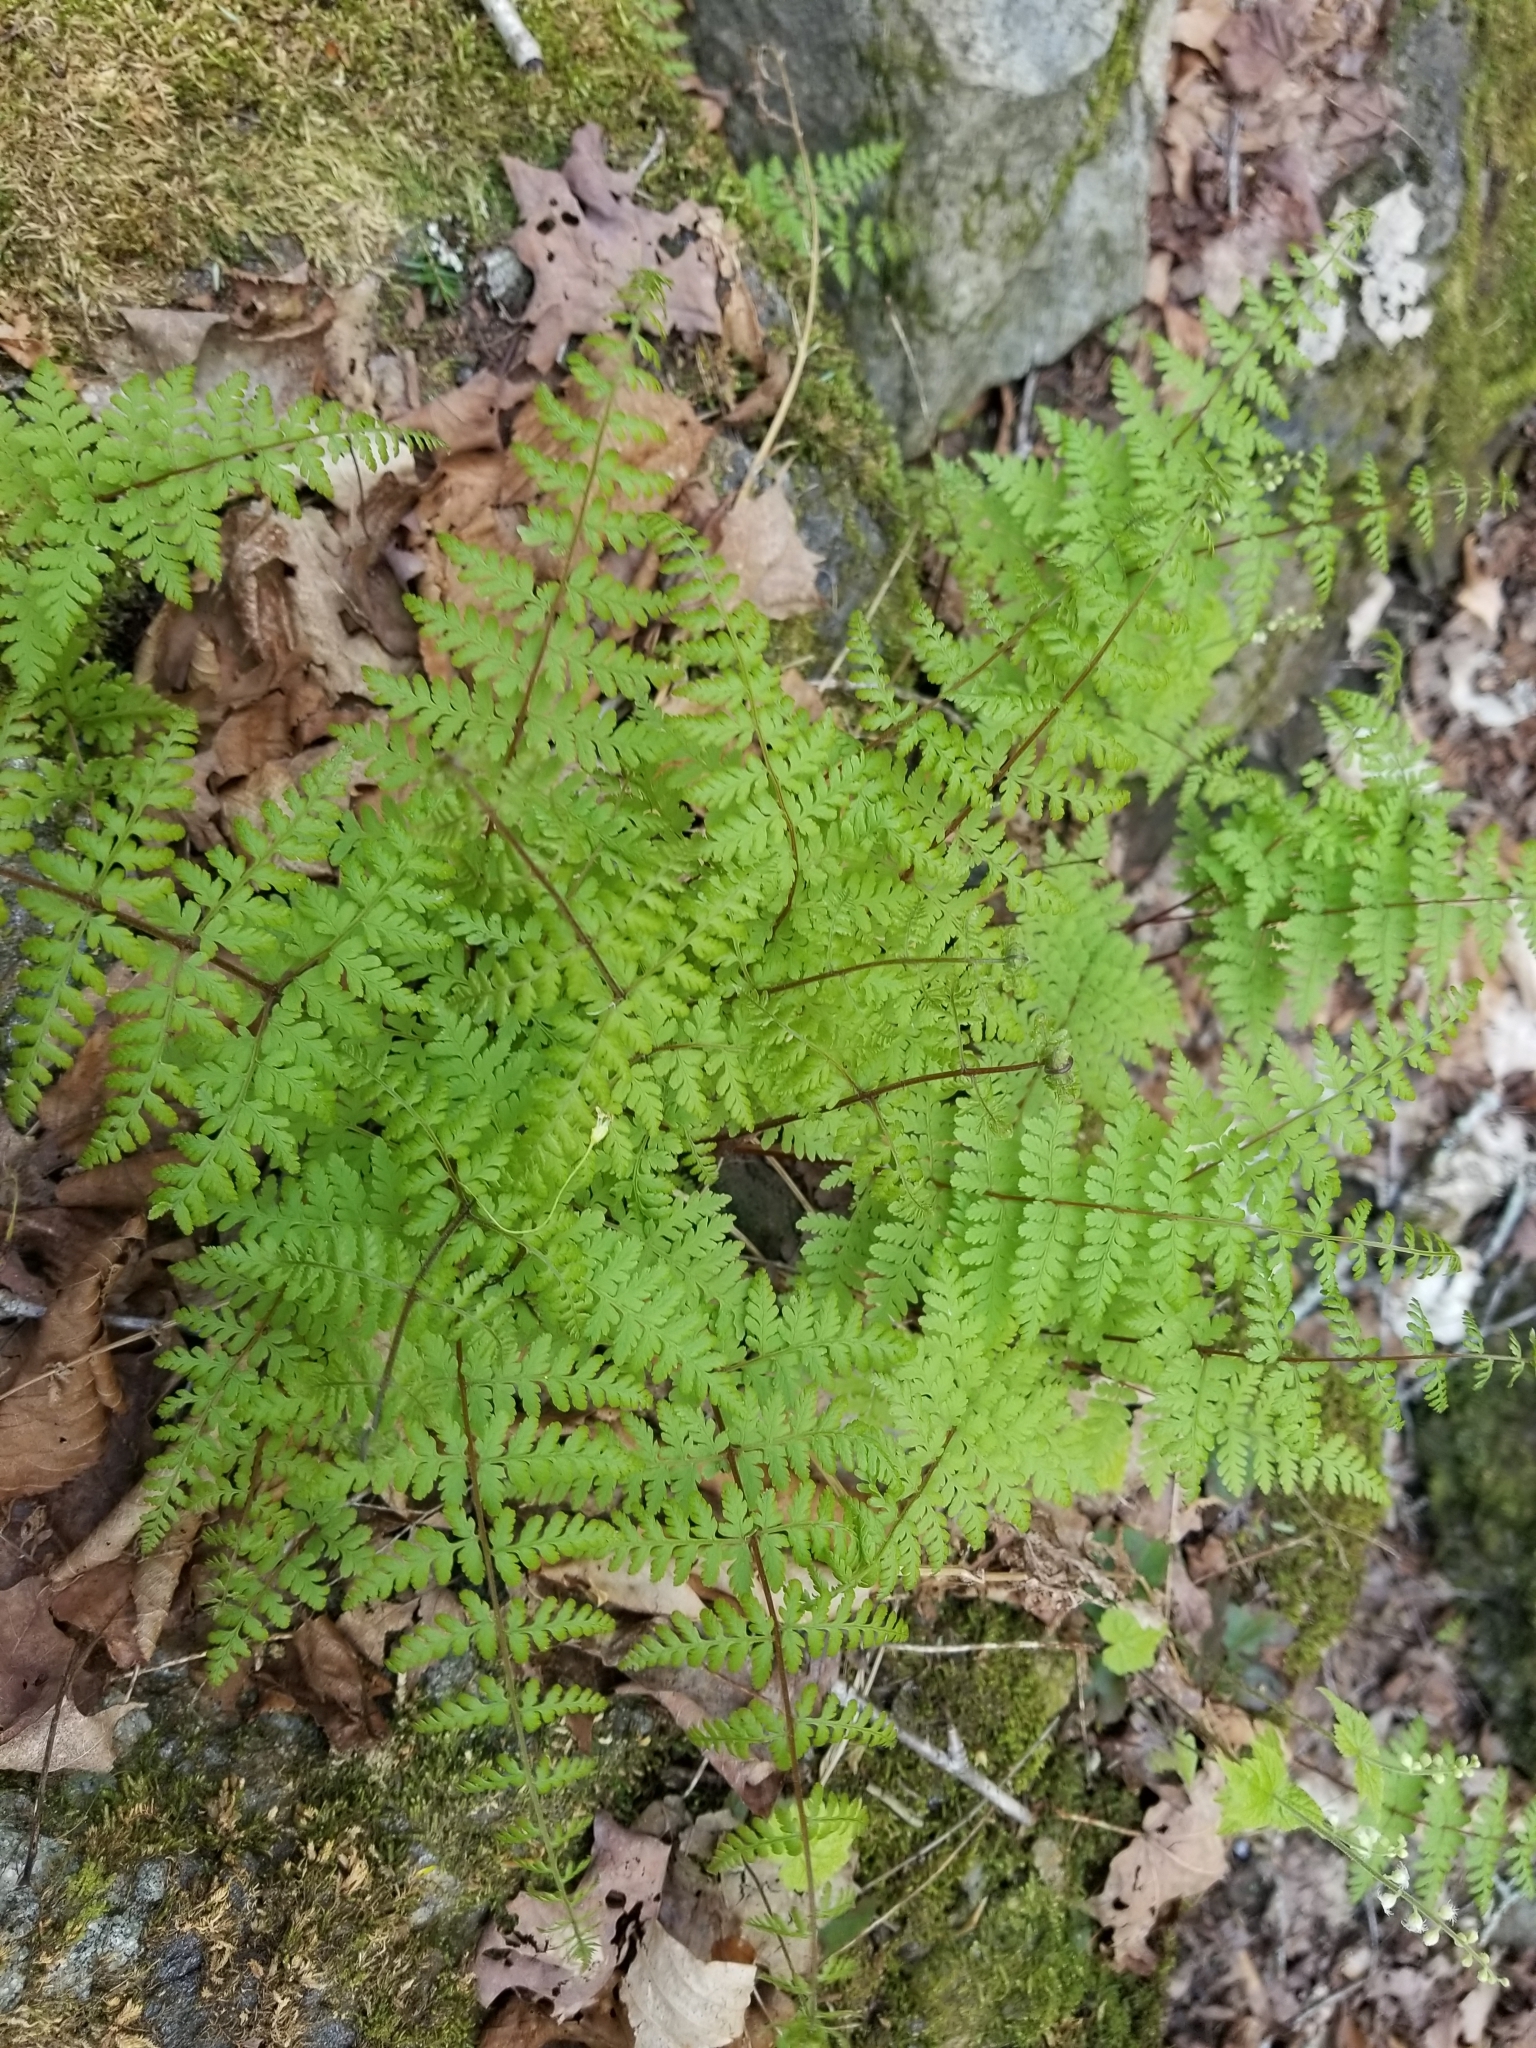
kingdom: Plantae
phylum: Tracheophyta
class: Polypodiopsida
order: Polypodiales
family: Cystopteridaceae
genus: Cystopteris
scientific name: Cystopteris bulbifera
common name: Bulblet bladder fern
